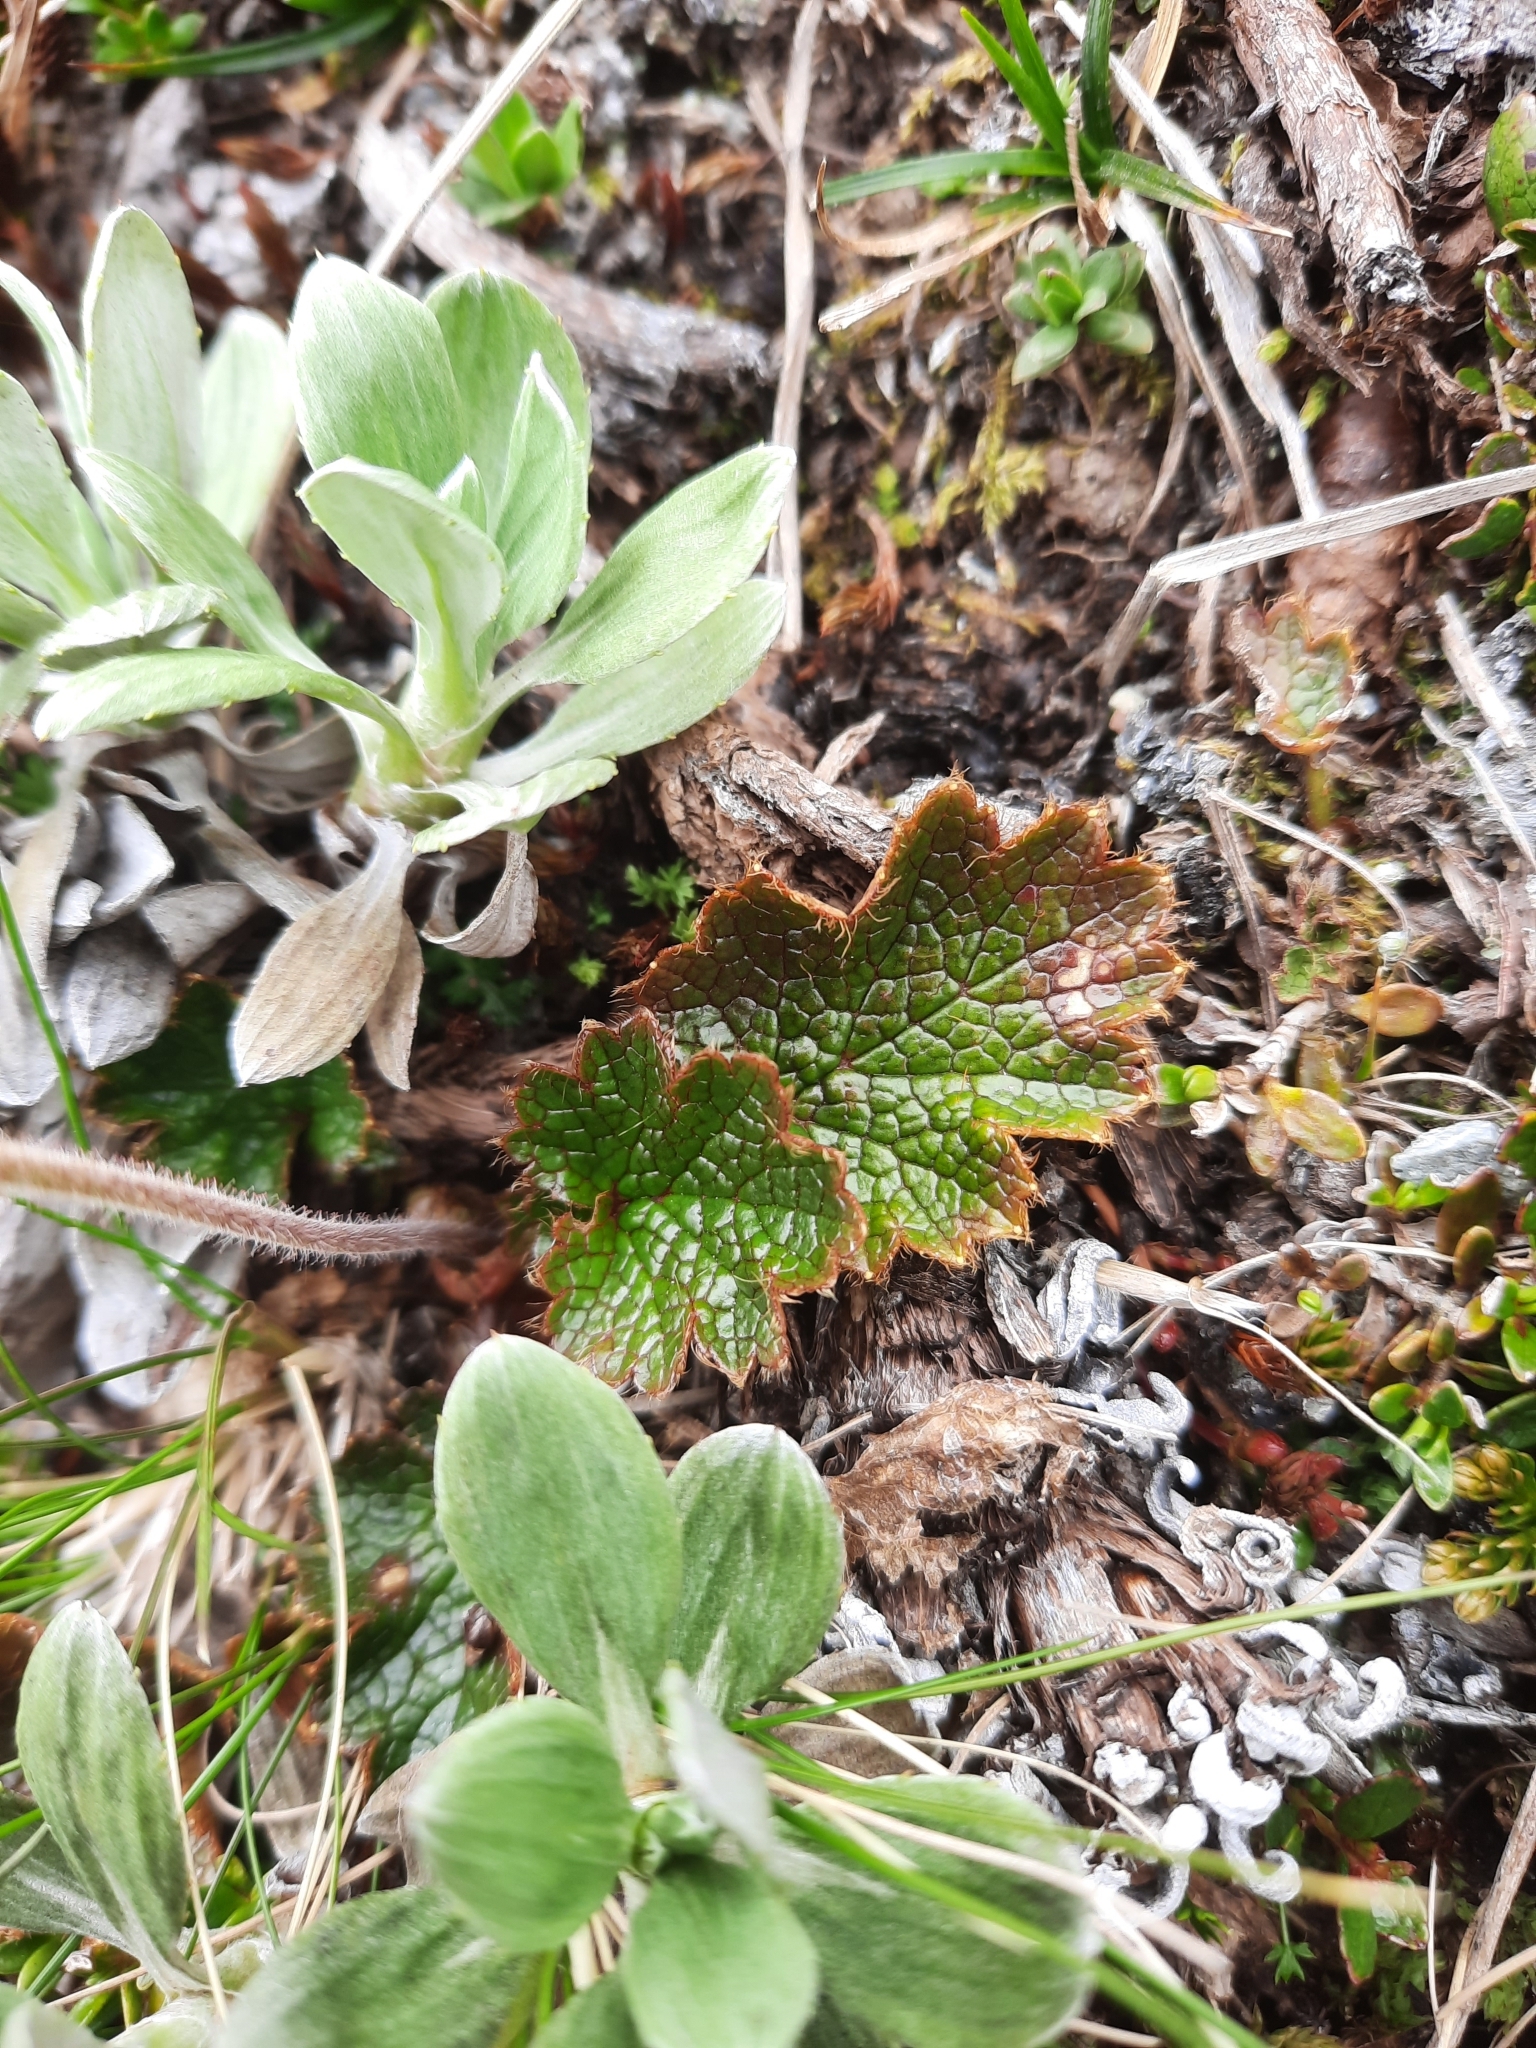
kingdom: Plantae
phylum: Tracheophyta
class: Magnoliopsida
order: Rosales
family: Rosaceae
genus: Geum
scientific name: Geum uniflorum
